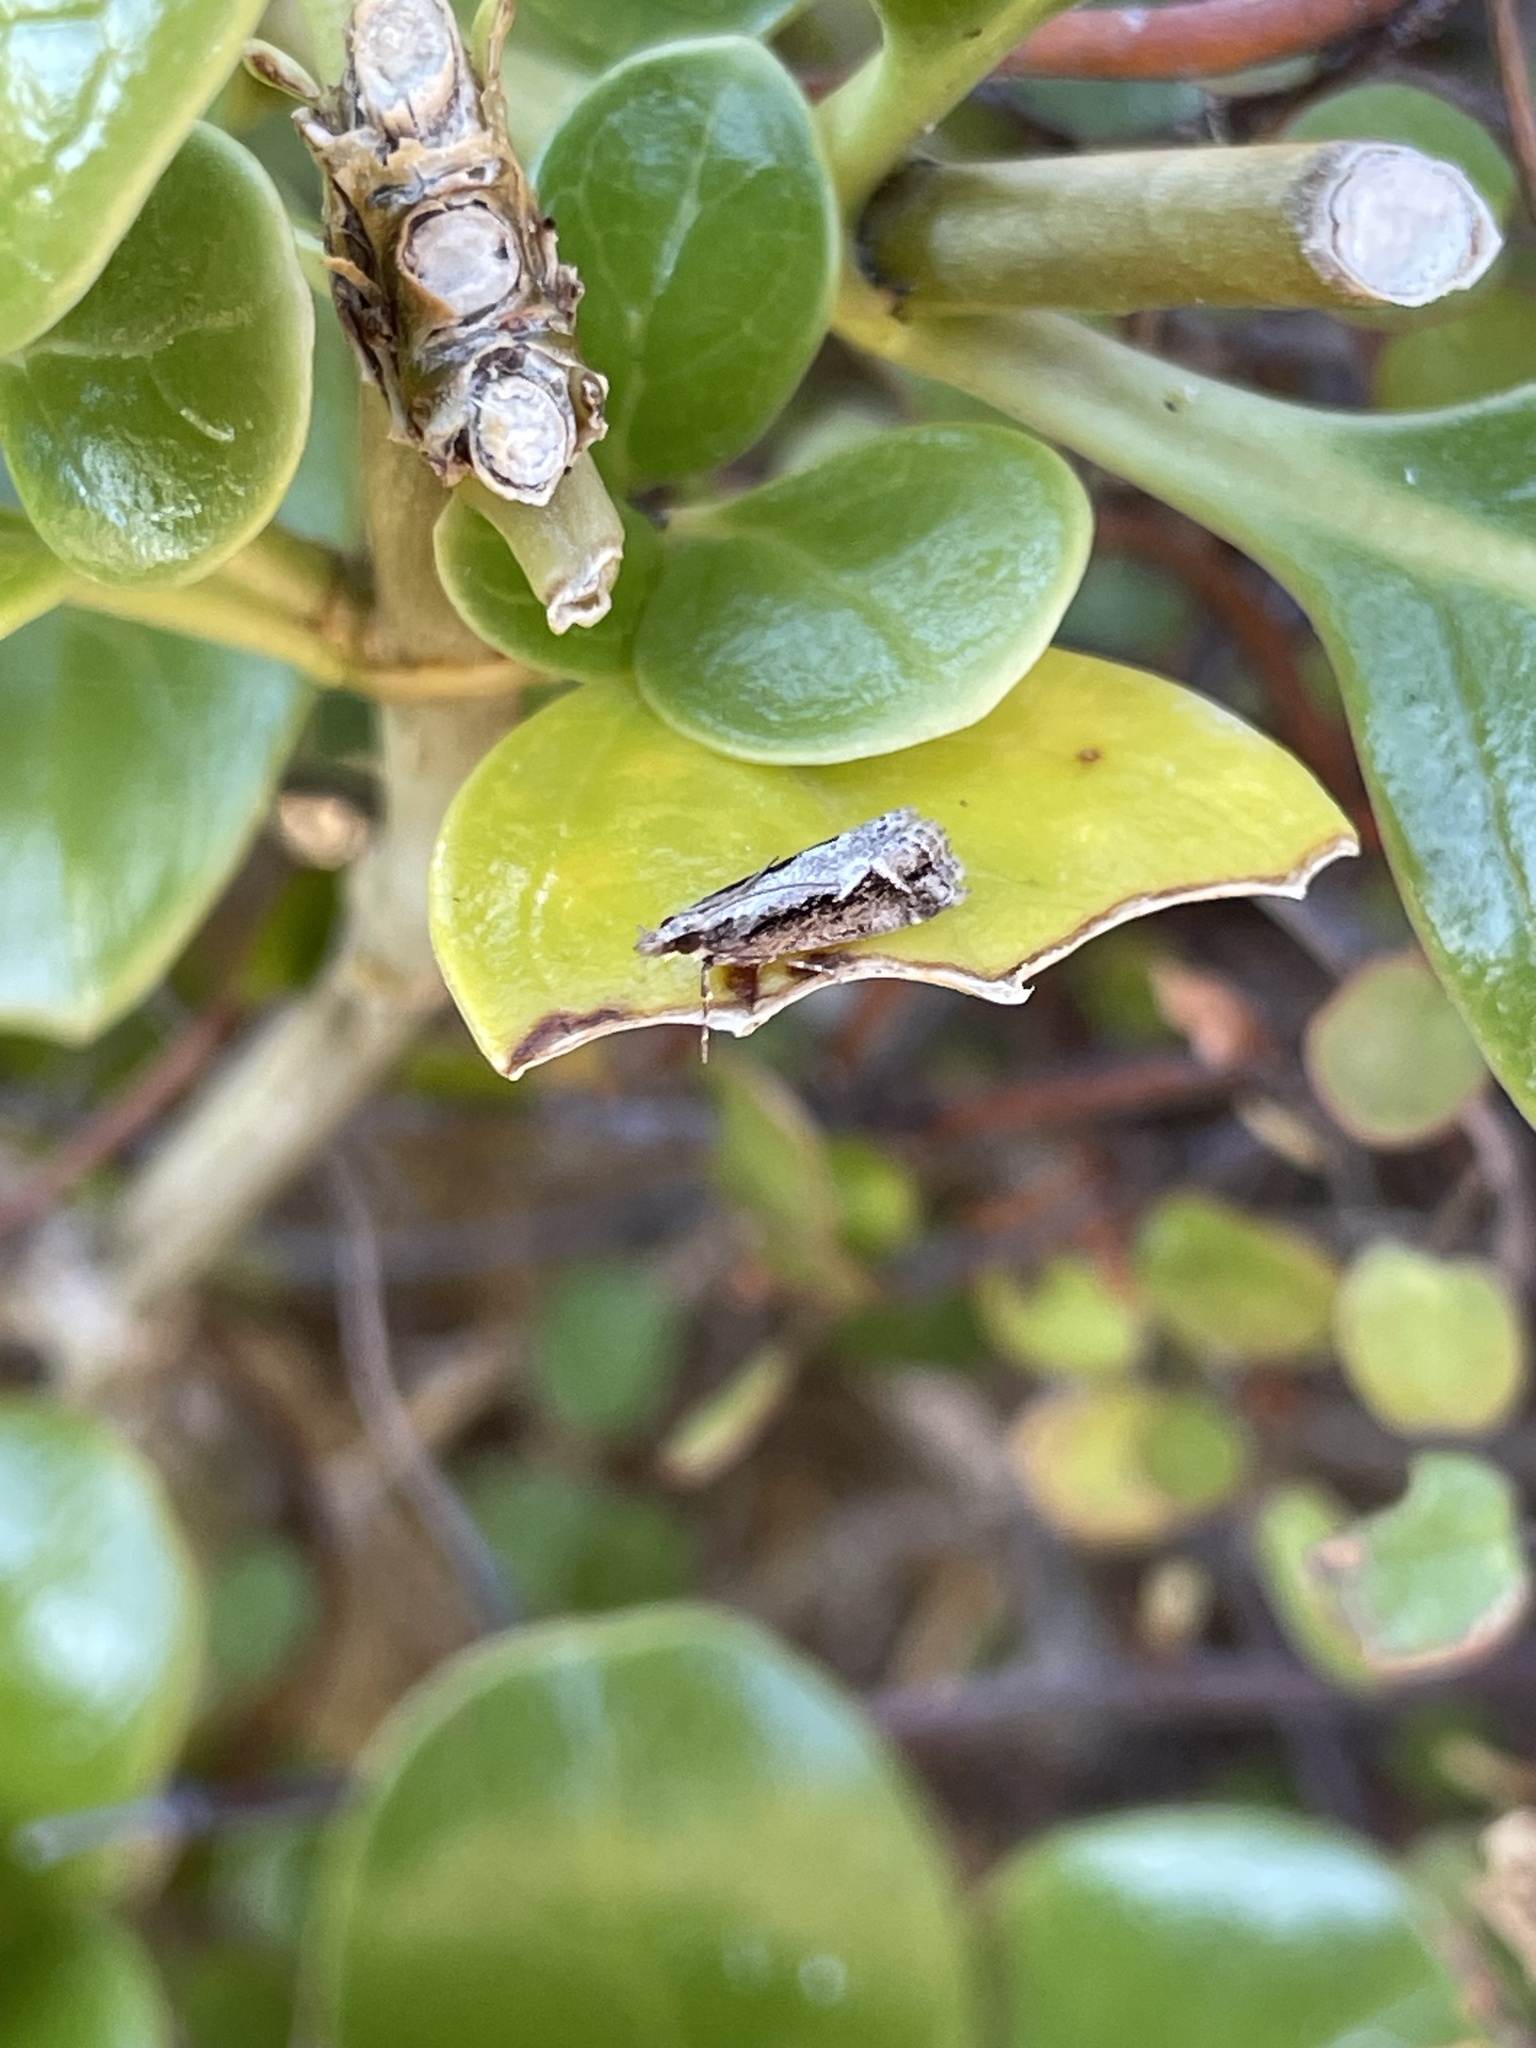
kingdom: Animalia
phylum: Arthropoda
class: Insecta
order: Lepidoptera
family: Crambidae
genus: Eudonia
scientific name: Eudonia steropaea
